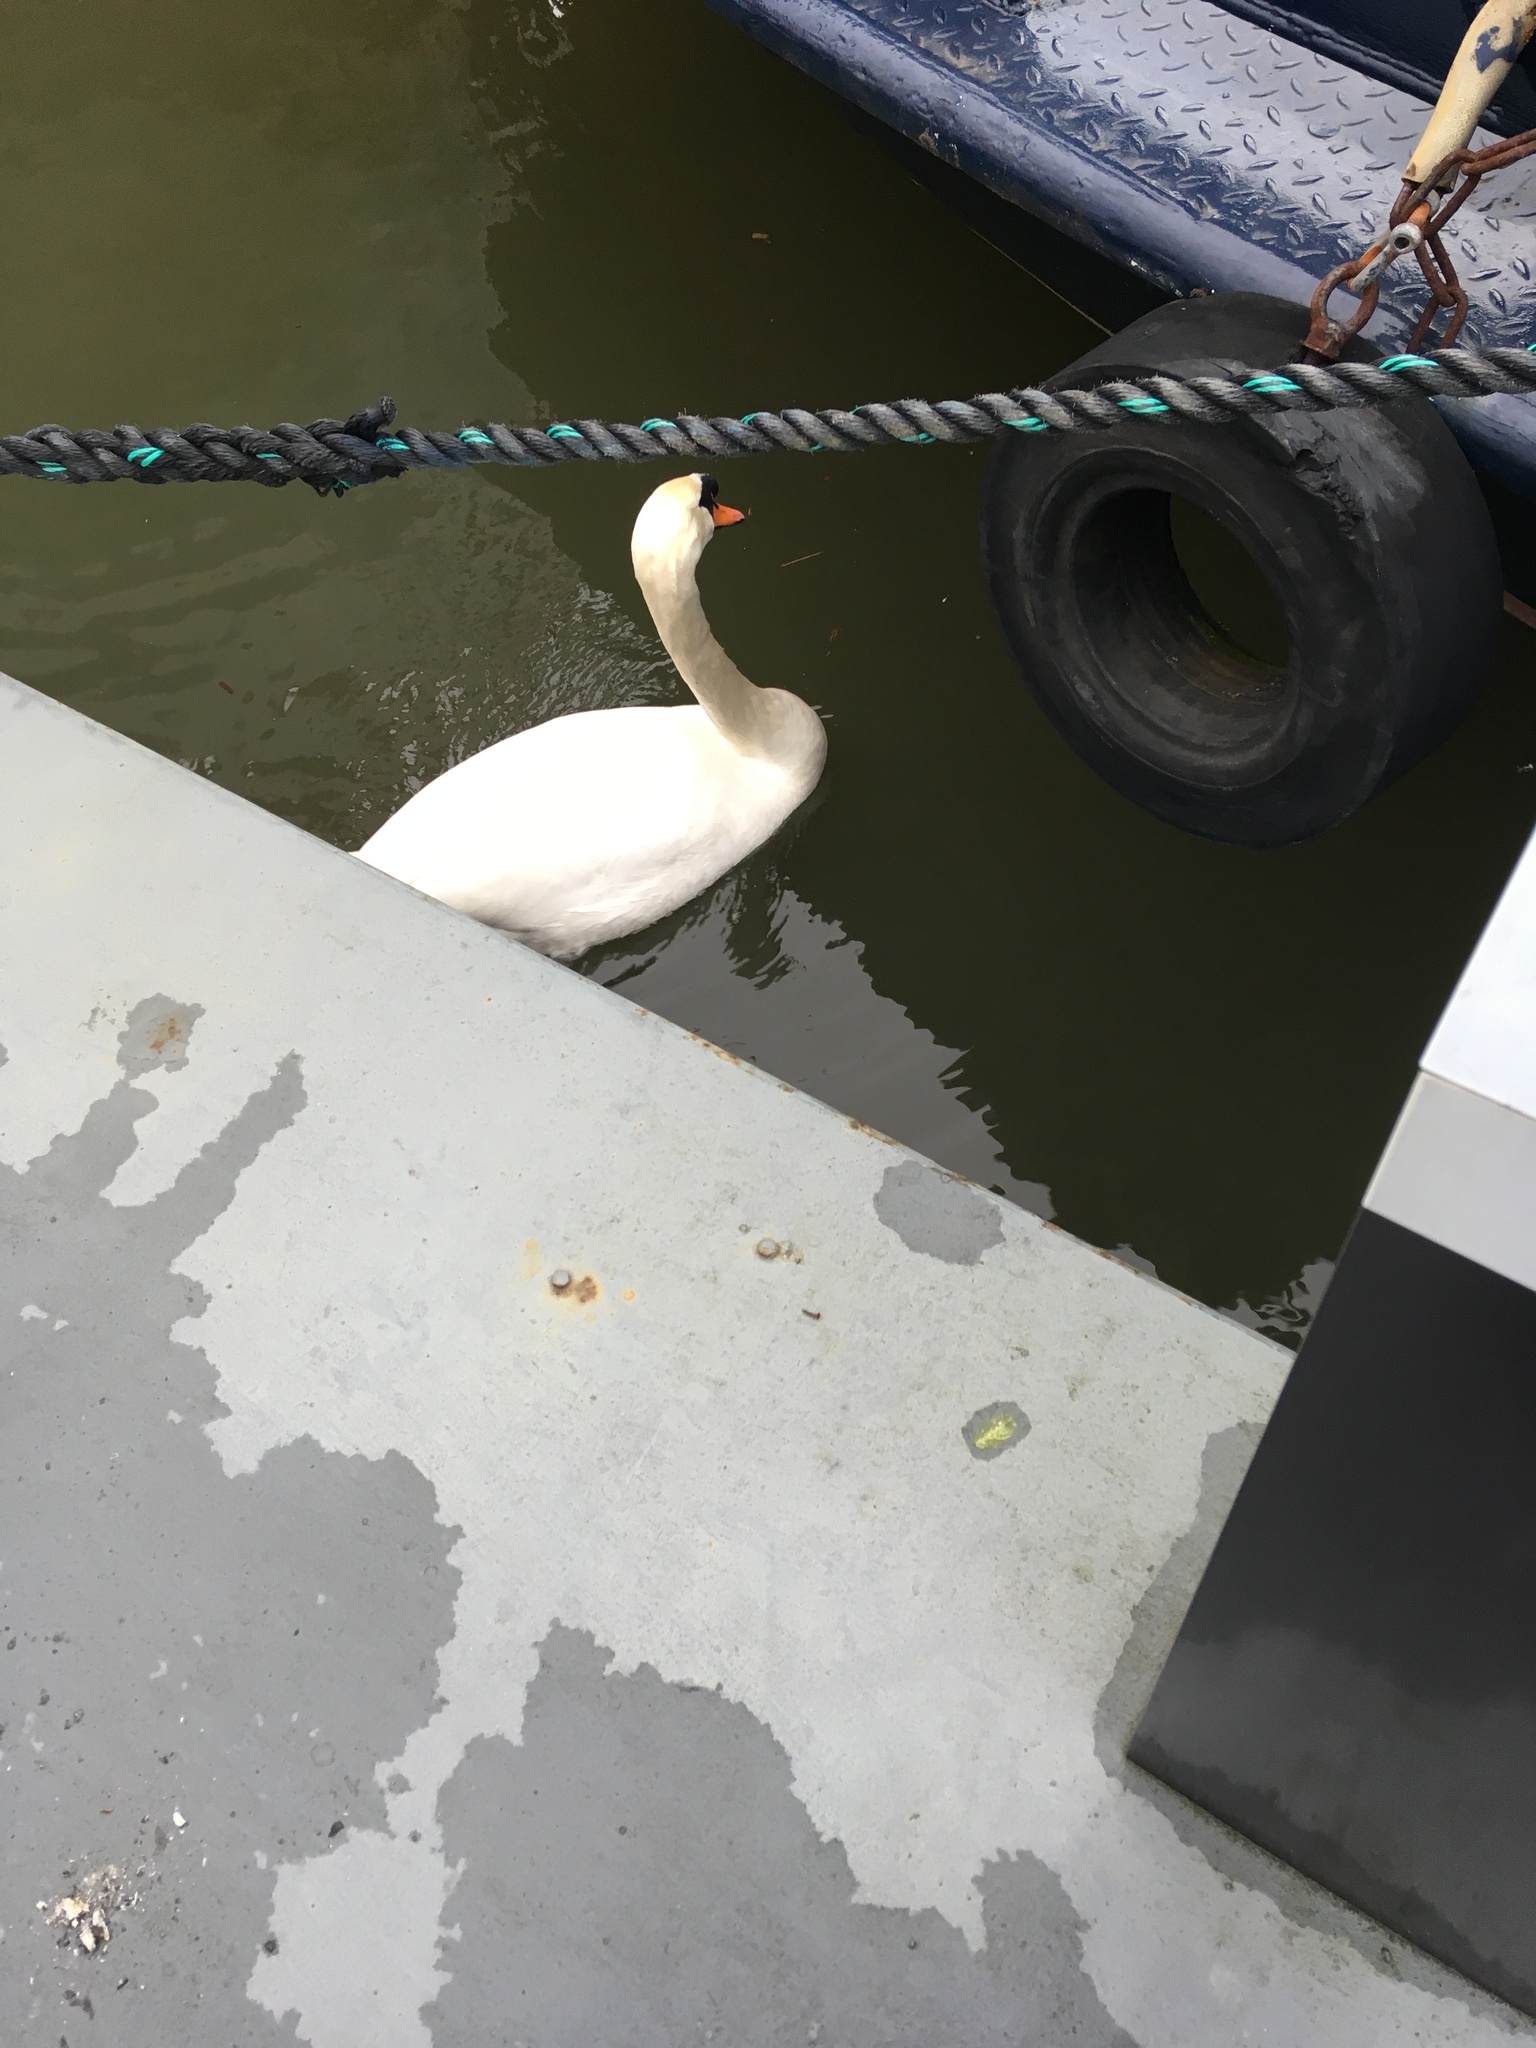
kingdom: Animalia
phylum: Chordata
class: Aves
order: Anseriformes
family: Anatidae
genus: Cygnus
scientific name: Cygnus olor
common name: Mute swan
